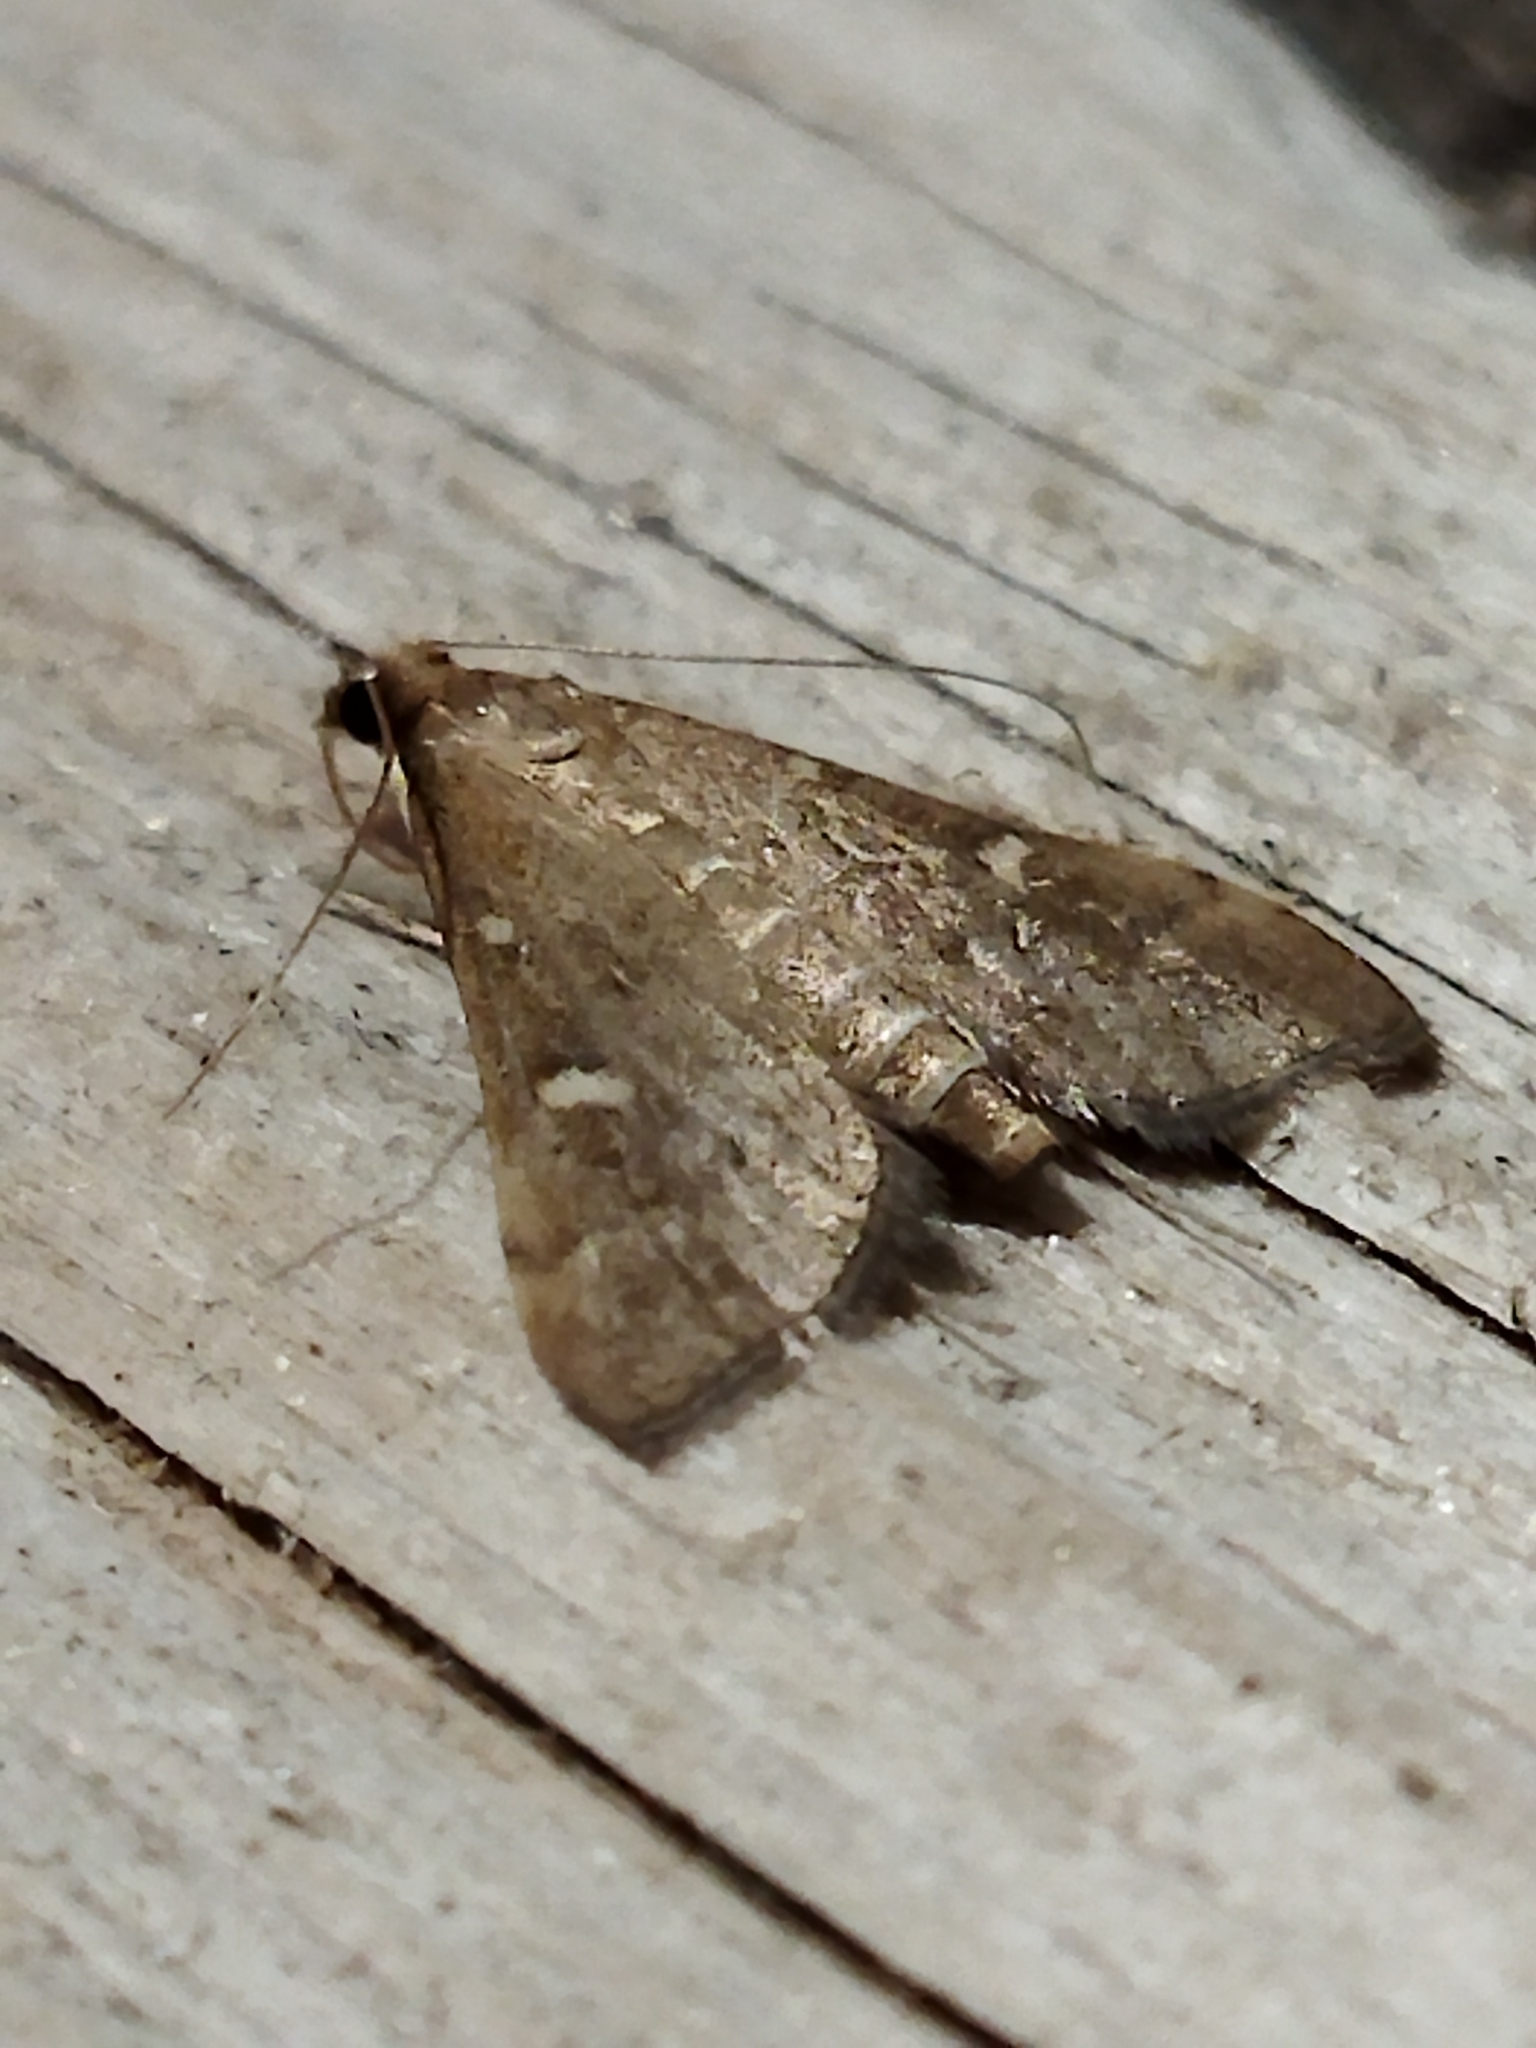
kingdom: Animalia
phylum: Arthropoda
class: Insecta
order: Lepidoptera
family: Crambidae
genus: Stenia
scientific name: Stenia Dolicharthria punctalis
